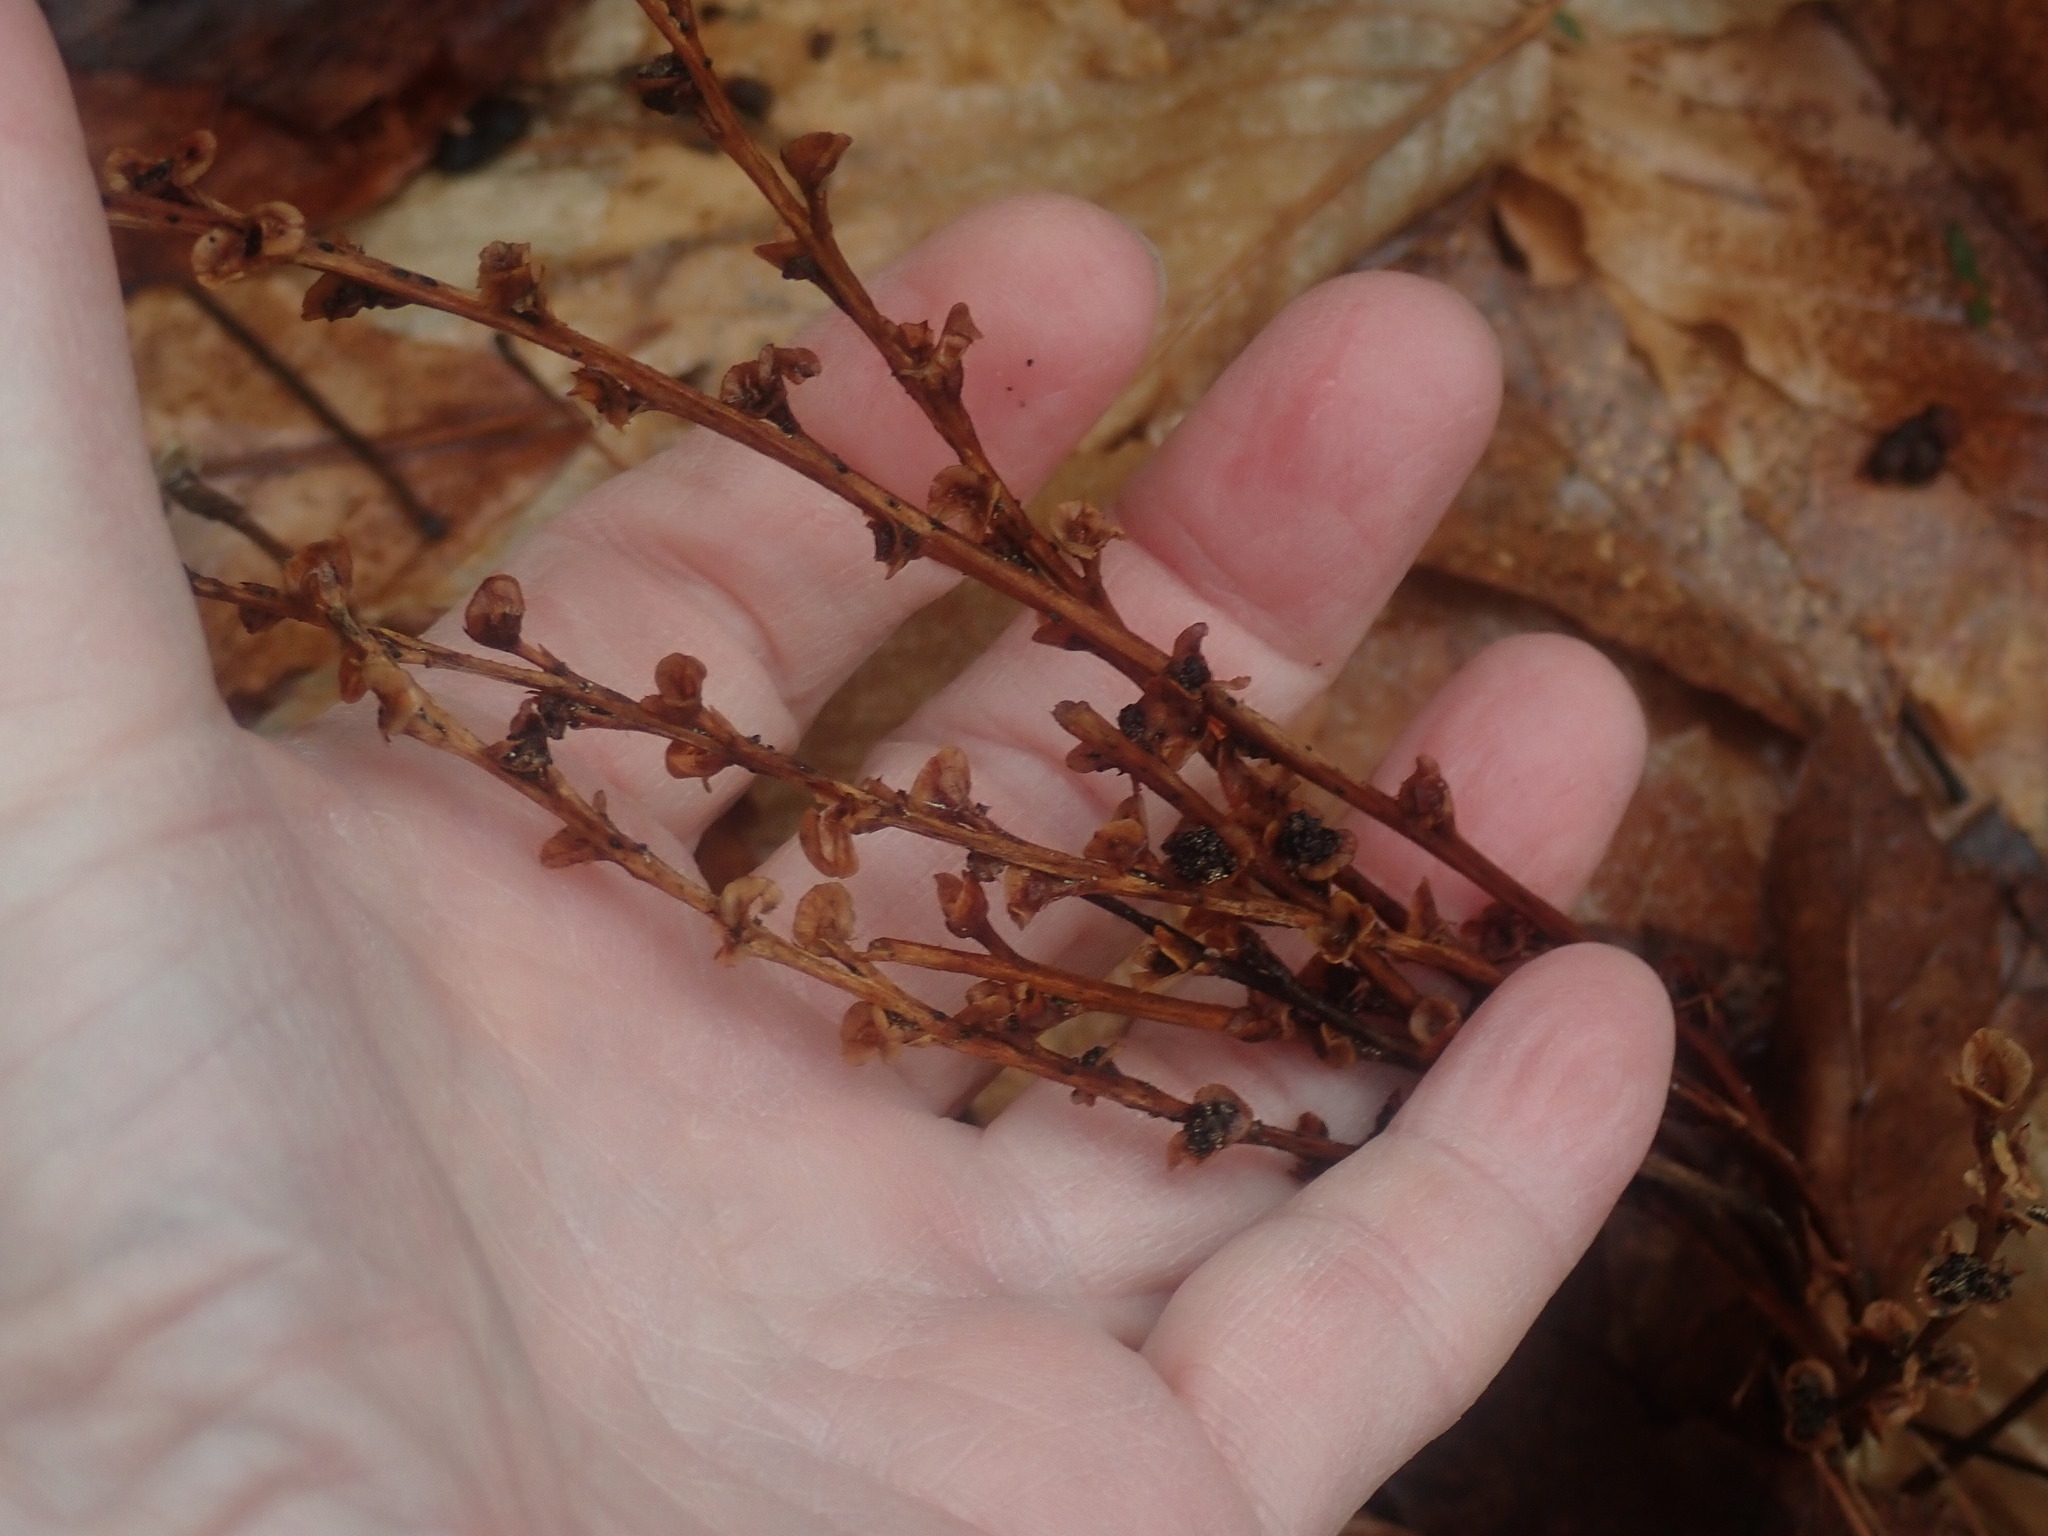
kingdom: Plantae
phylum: Tracheophyta
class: Magnoliopsida
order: Lamiales
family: Orobanchaceae
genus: Epifagus
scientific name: Epifagus virginiana
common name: Beechdrops
